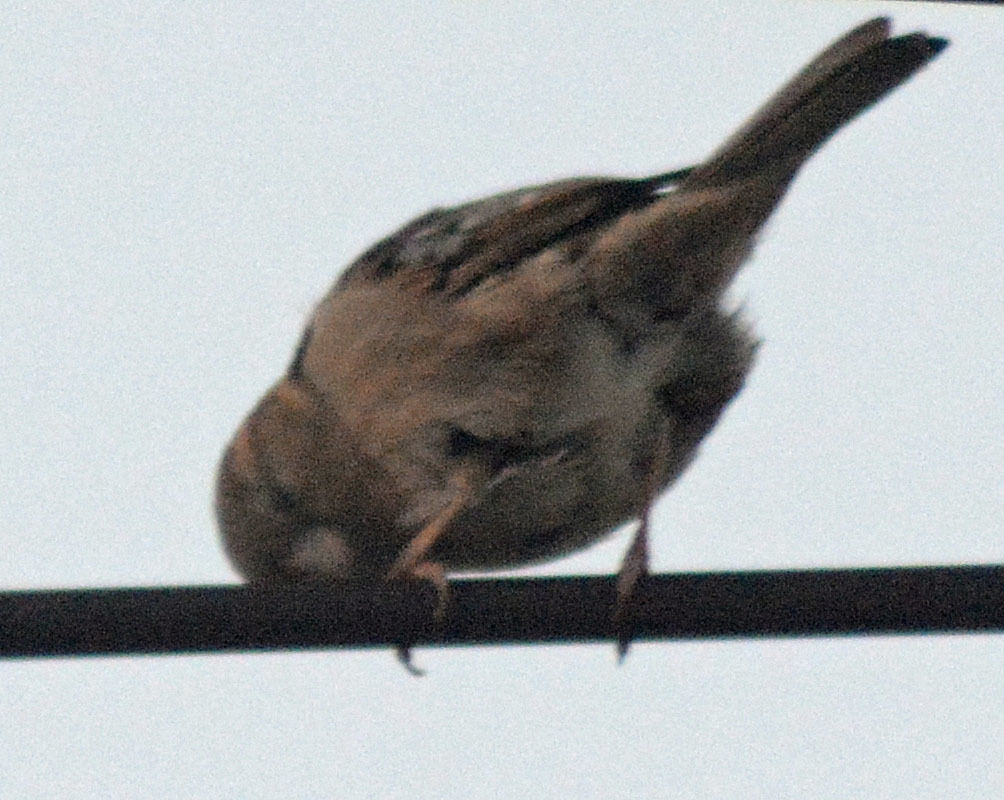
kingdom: Animalia
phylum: Chordata
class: Aves
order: Passeriformes
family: Passeridae
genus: Passer
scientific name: Passer domesticus
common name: House sparrow
